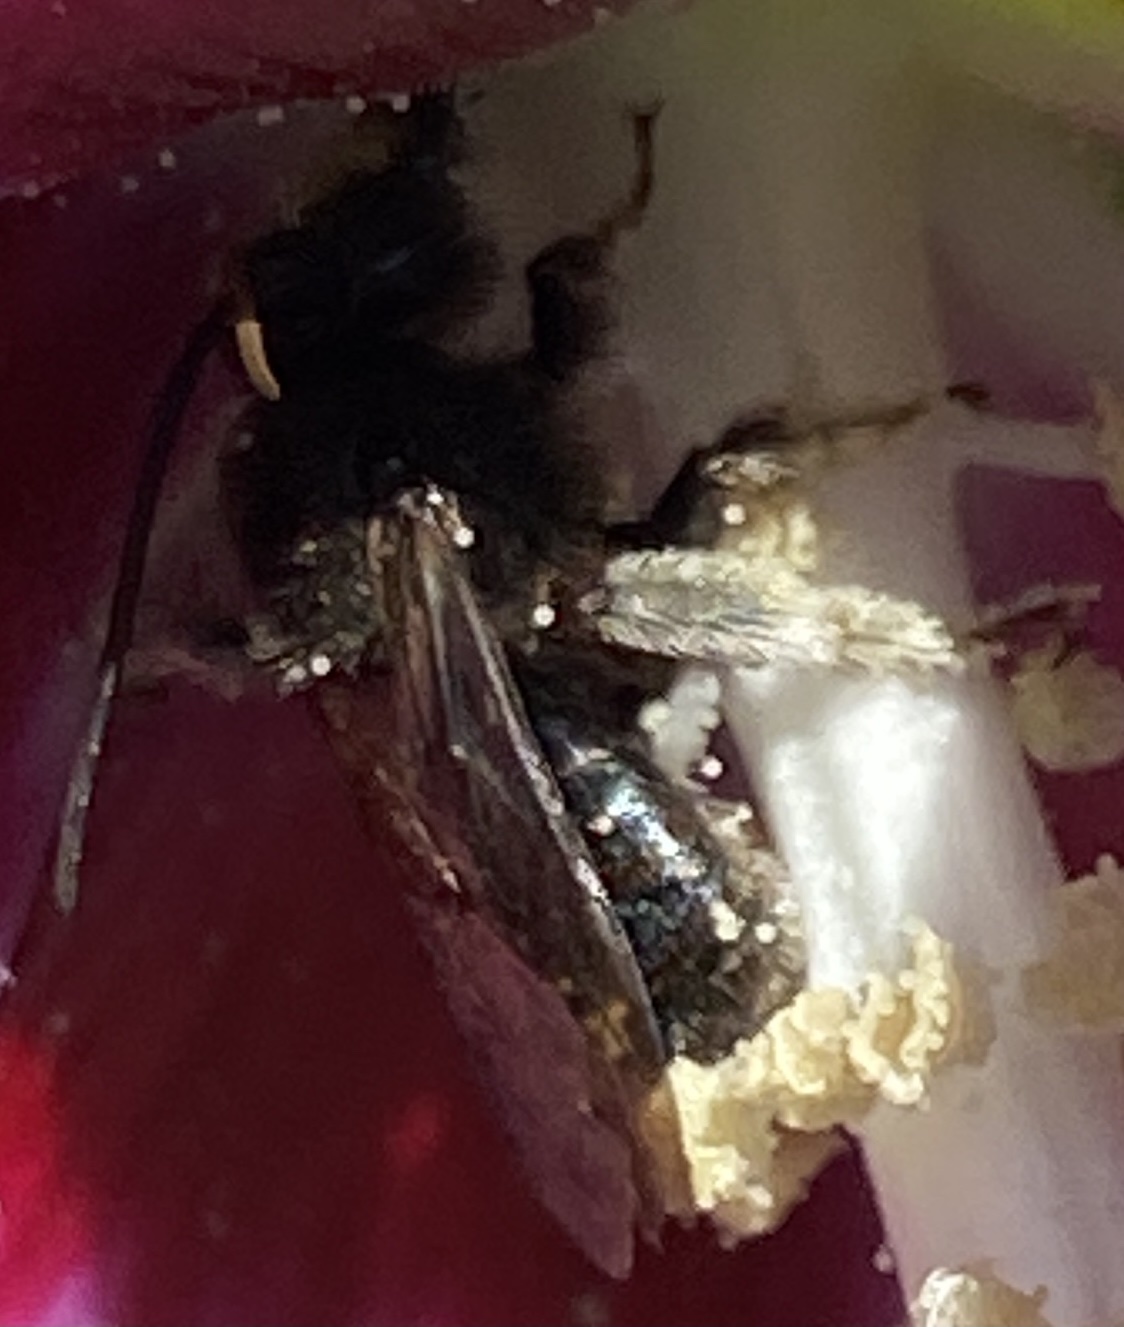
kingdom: Animalia
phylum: Arthropoda
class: Insecta
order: Hymenoptera
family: Apidae
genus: Melissodes
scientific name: Melissodes bimaculatus
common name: Two-spotted long-horned bee
